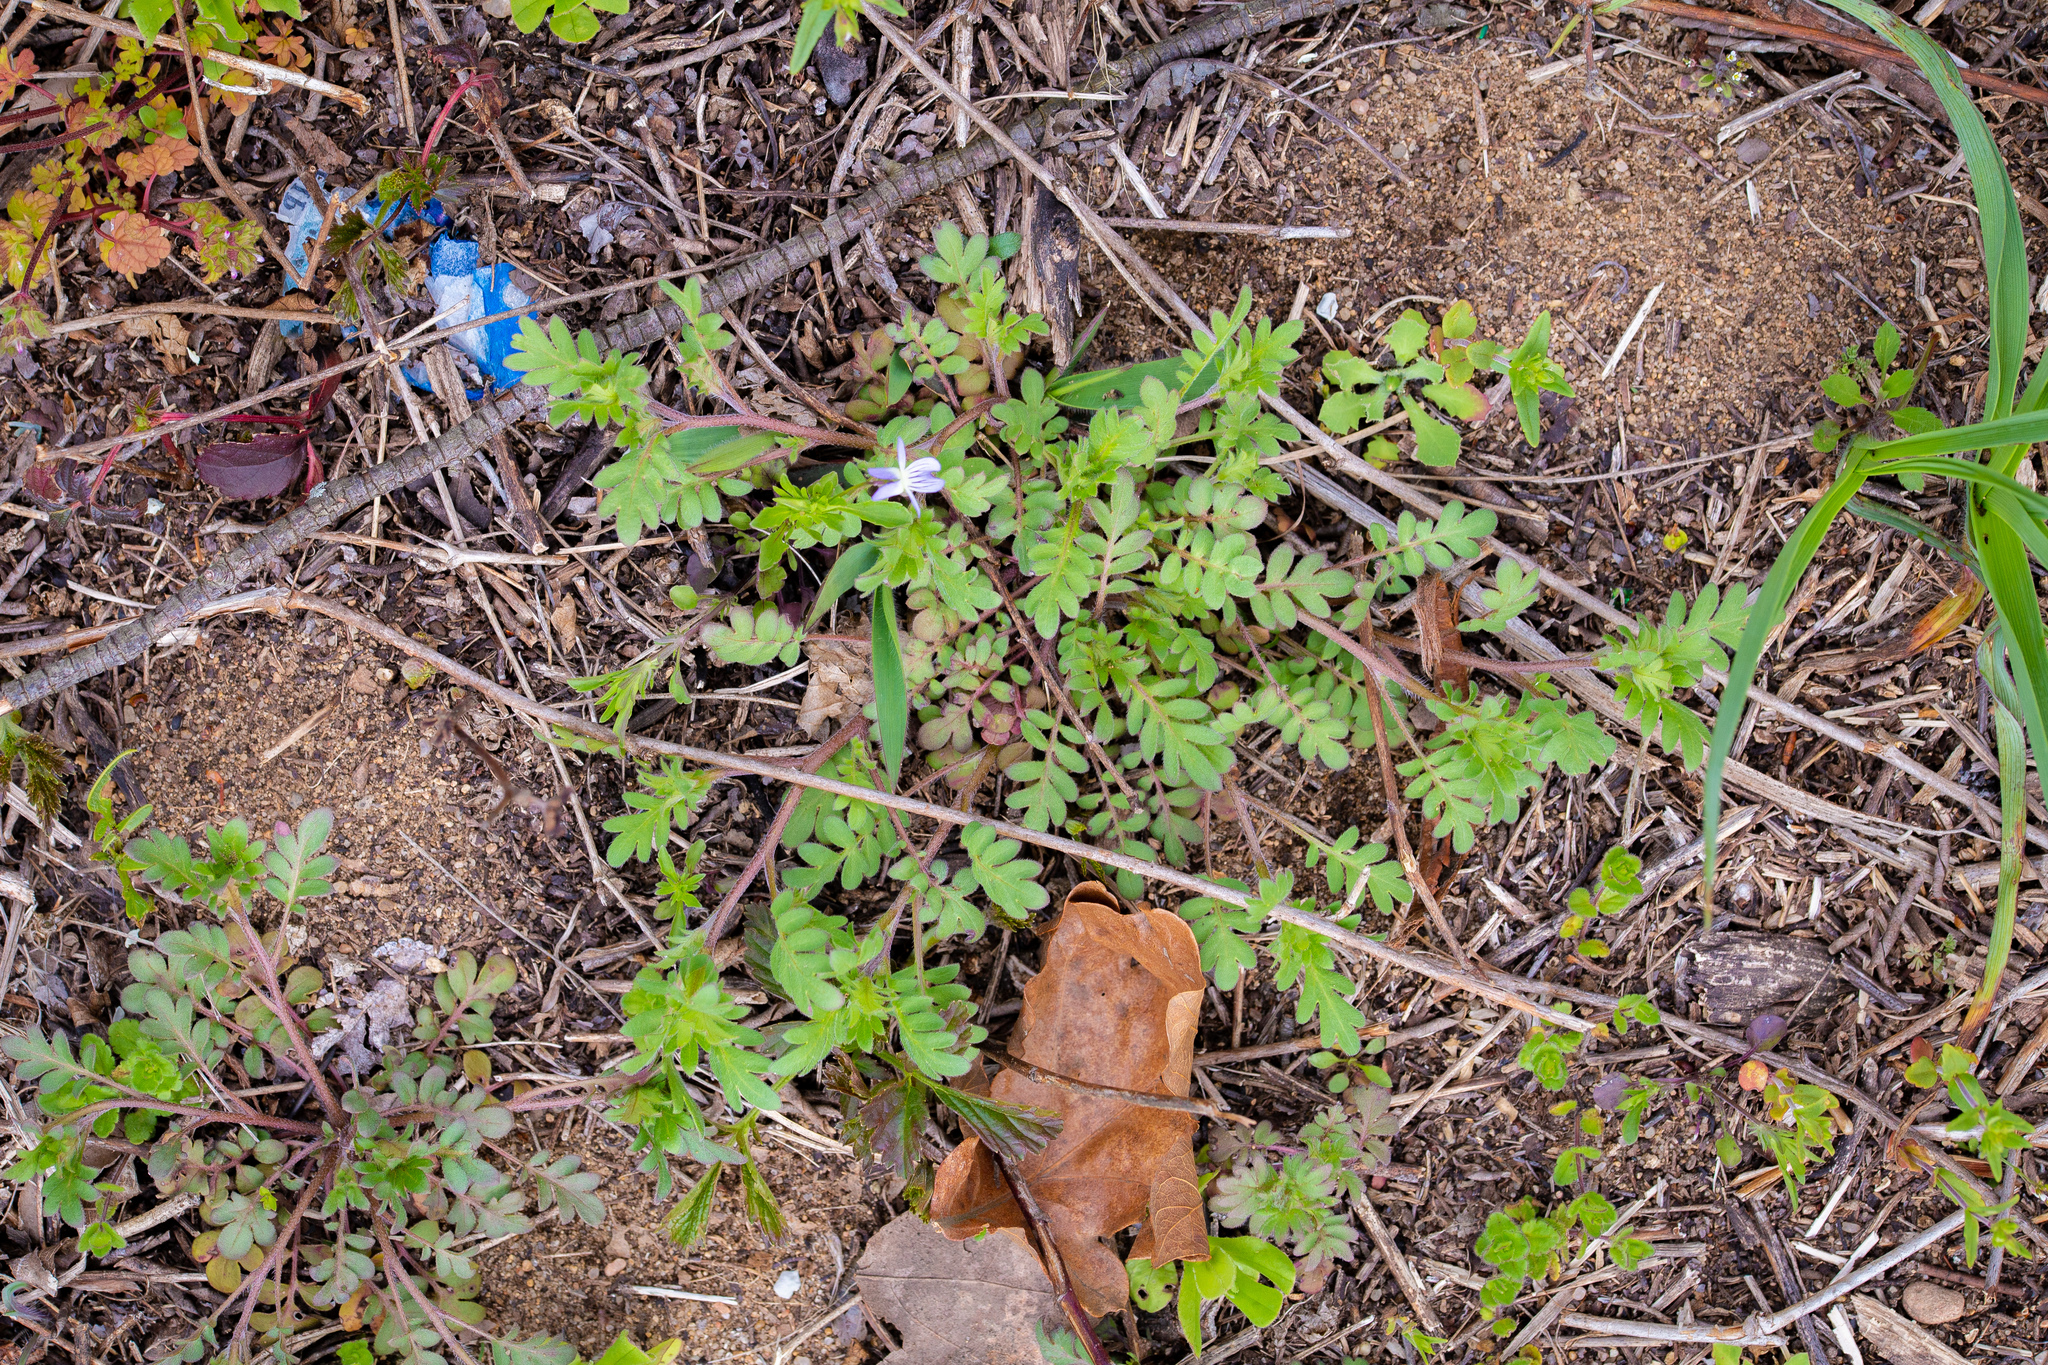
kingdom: Plantae
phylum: Tracheophyta
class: Magnoliopsida
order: Boraginales
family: Hydrophyllaceae
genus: Phacelia
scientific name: Phacelia purshii
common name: Miami-mist
